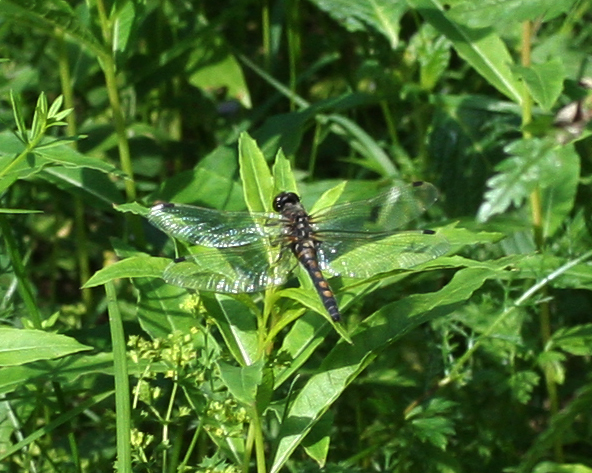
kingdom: Animalia
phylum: Arthropoda
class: Insecta
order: Odonata
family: Libellulidae
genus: Leucorrhinia
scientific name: Leucorrhinia rubicunda
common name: Ruby whiteface
